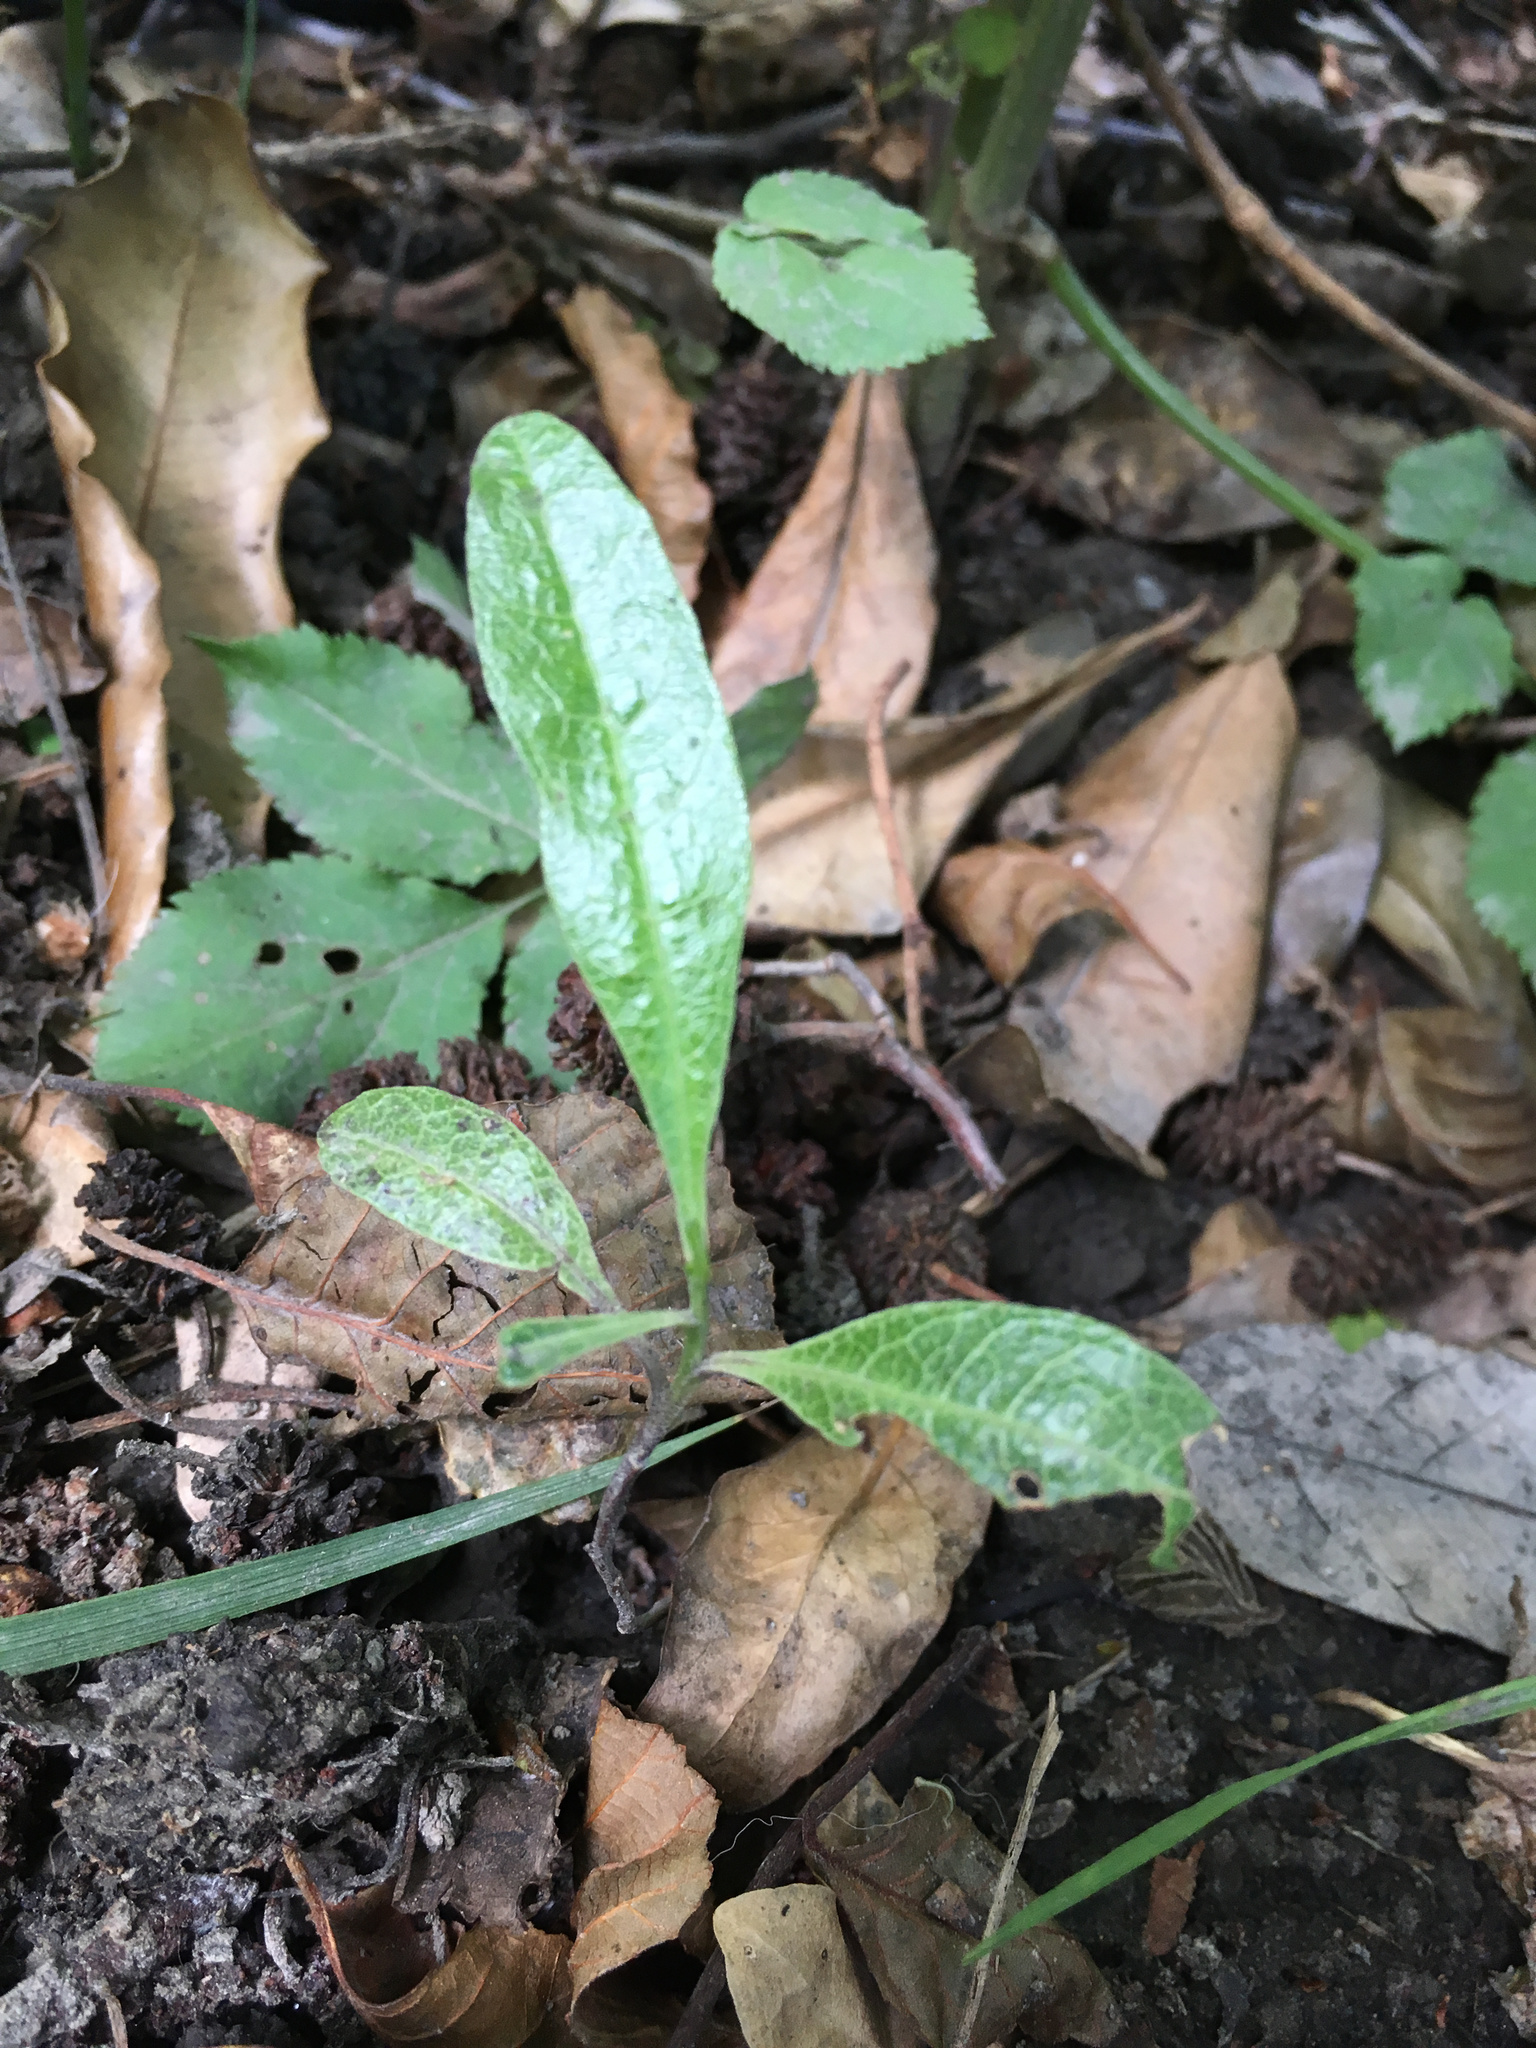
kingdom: Plantae
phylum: Tracheophyta
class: Magnoliopsida
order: Sapindales
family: Sapindaceae
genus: Dodonaea
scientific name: Dodonaea viscosa
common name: Hopbush
